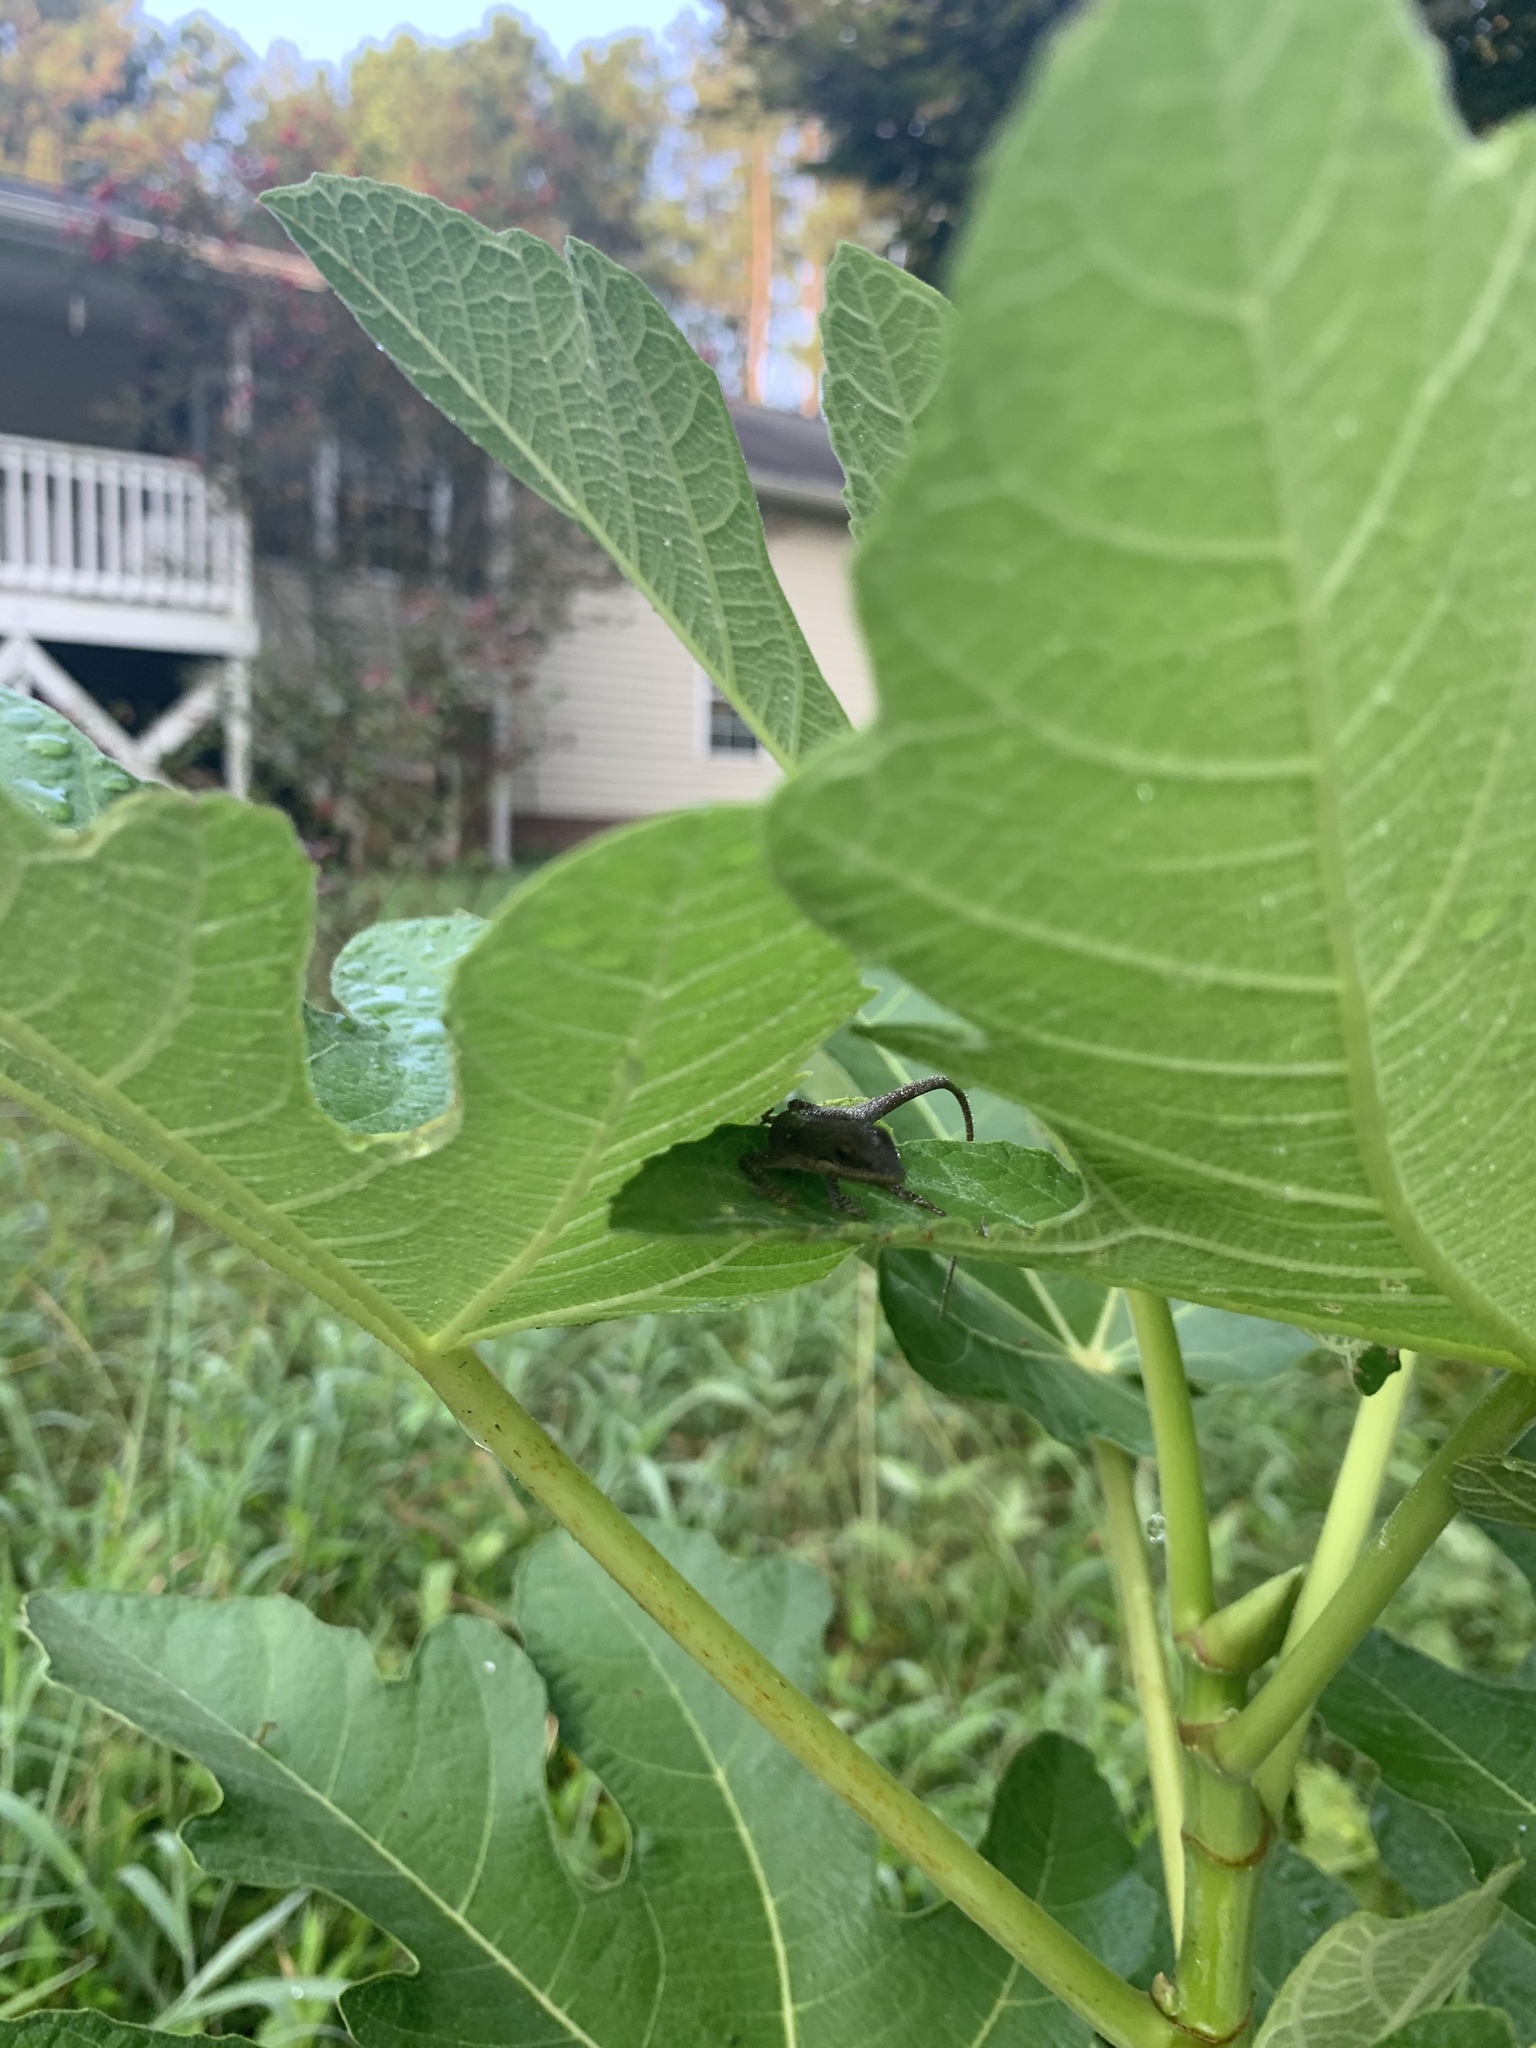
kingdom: Animalia
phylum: Chordata
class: Squamata
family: Dactyloidae
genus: Anolis
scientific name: Anolis carolinensis
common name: Green anole
